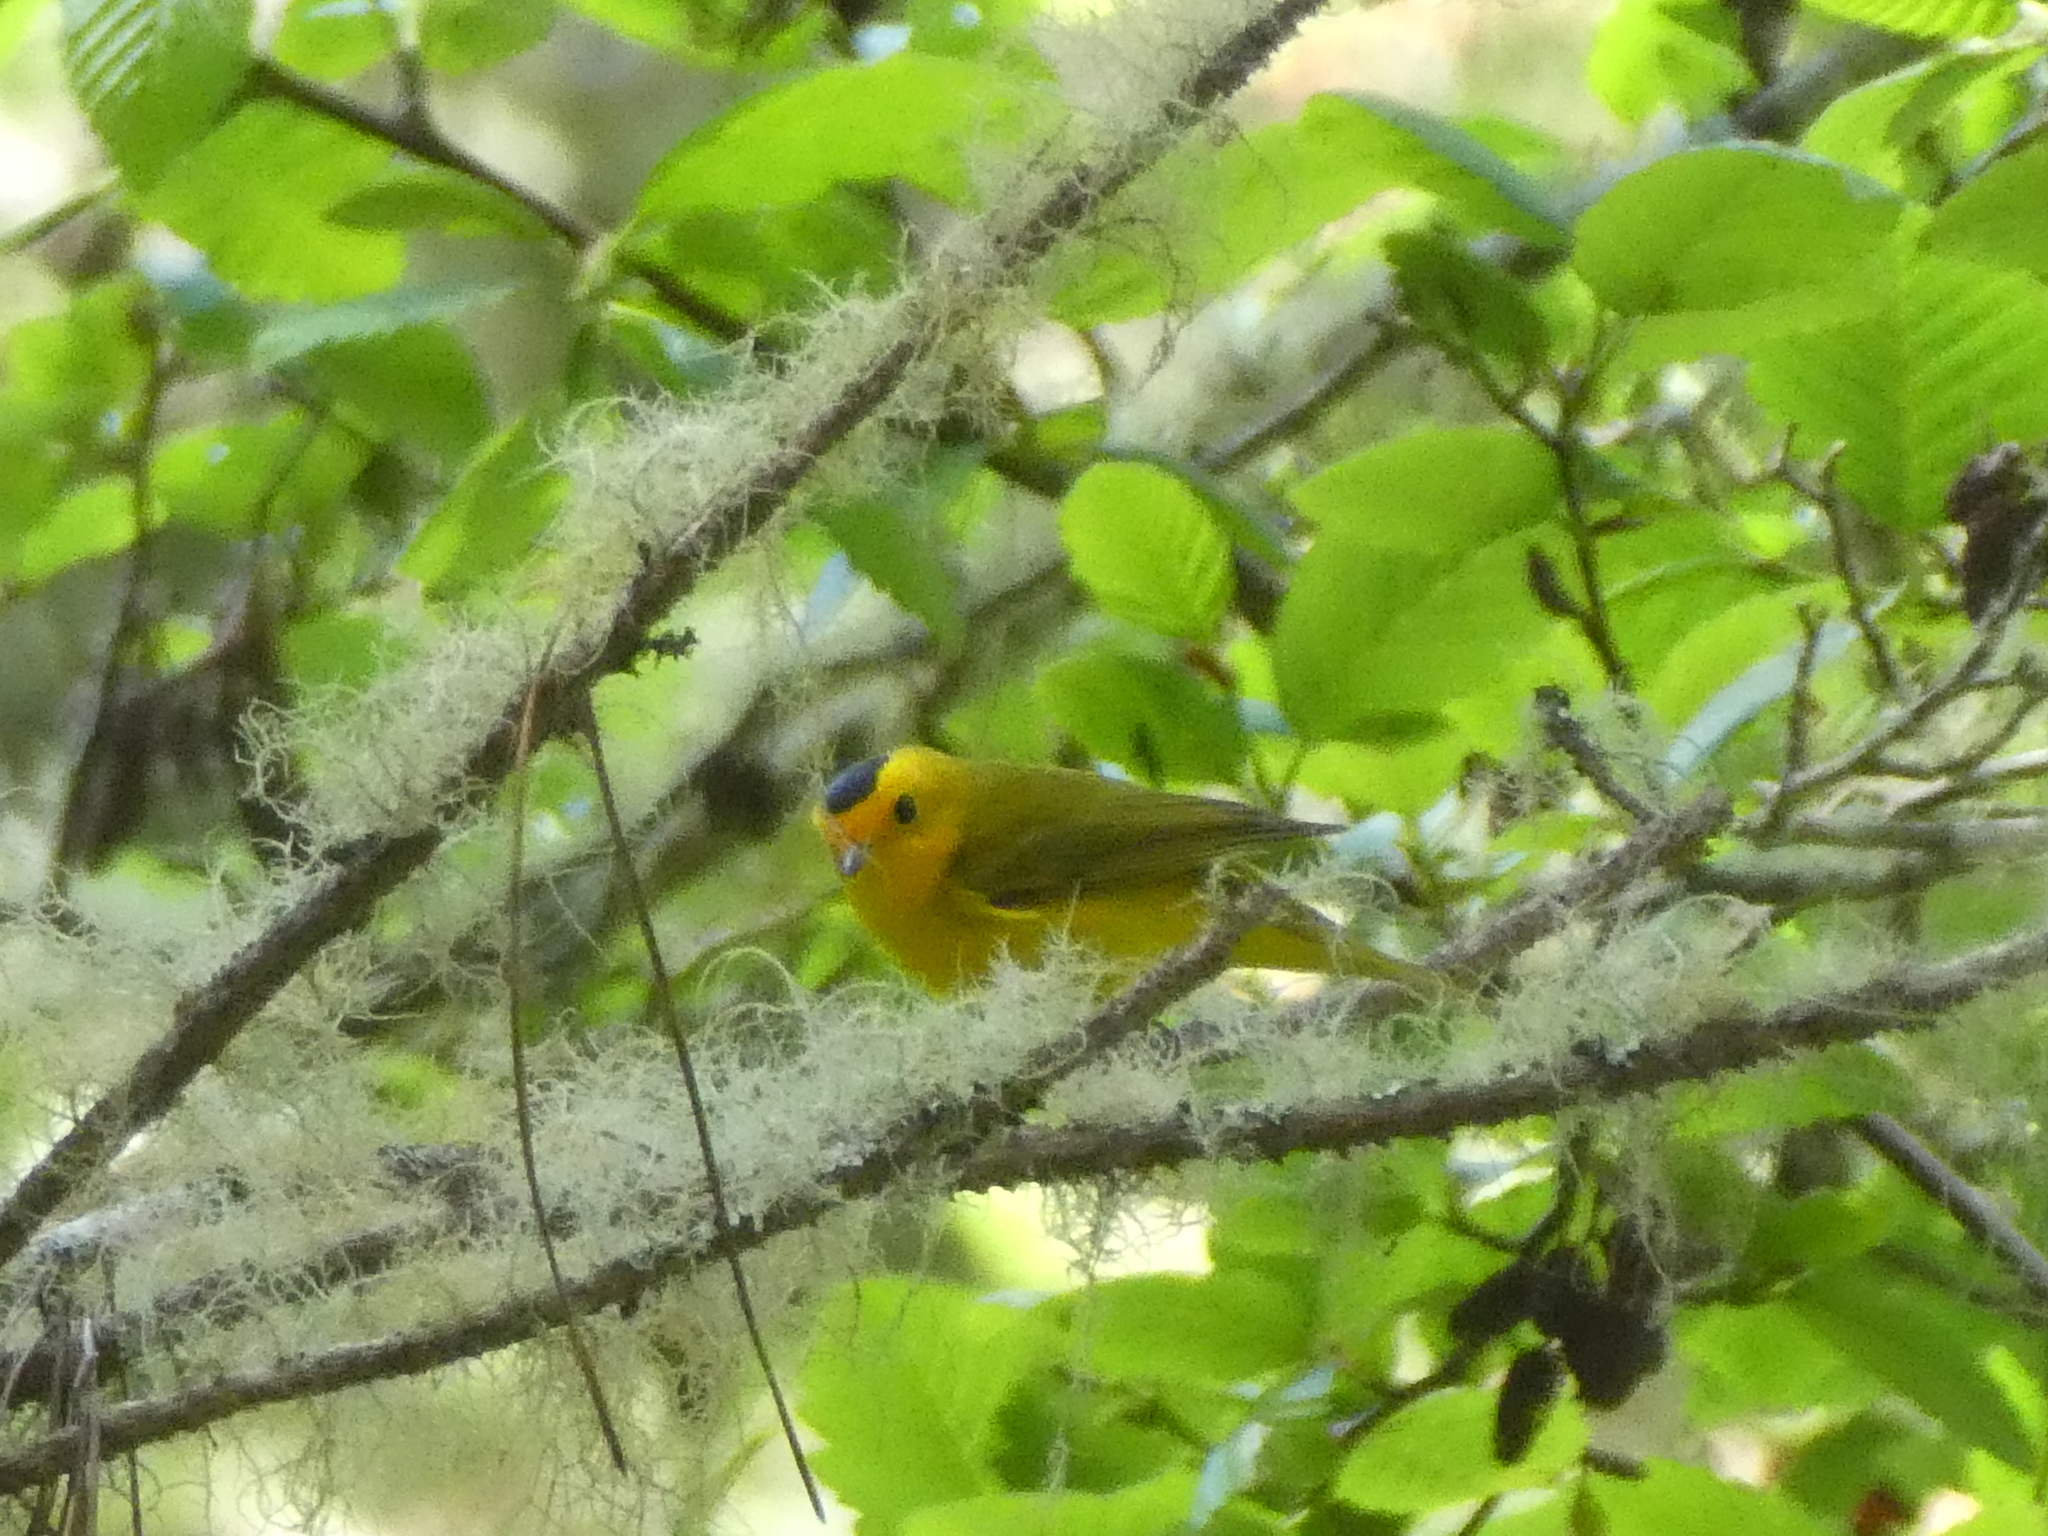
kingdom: Animalia
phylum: Chordata
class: Aves
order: Passeriformes
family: Parulidae
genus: Cardellina
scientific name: Cardellina pusilla
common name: Wilson's warbler
